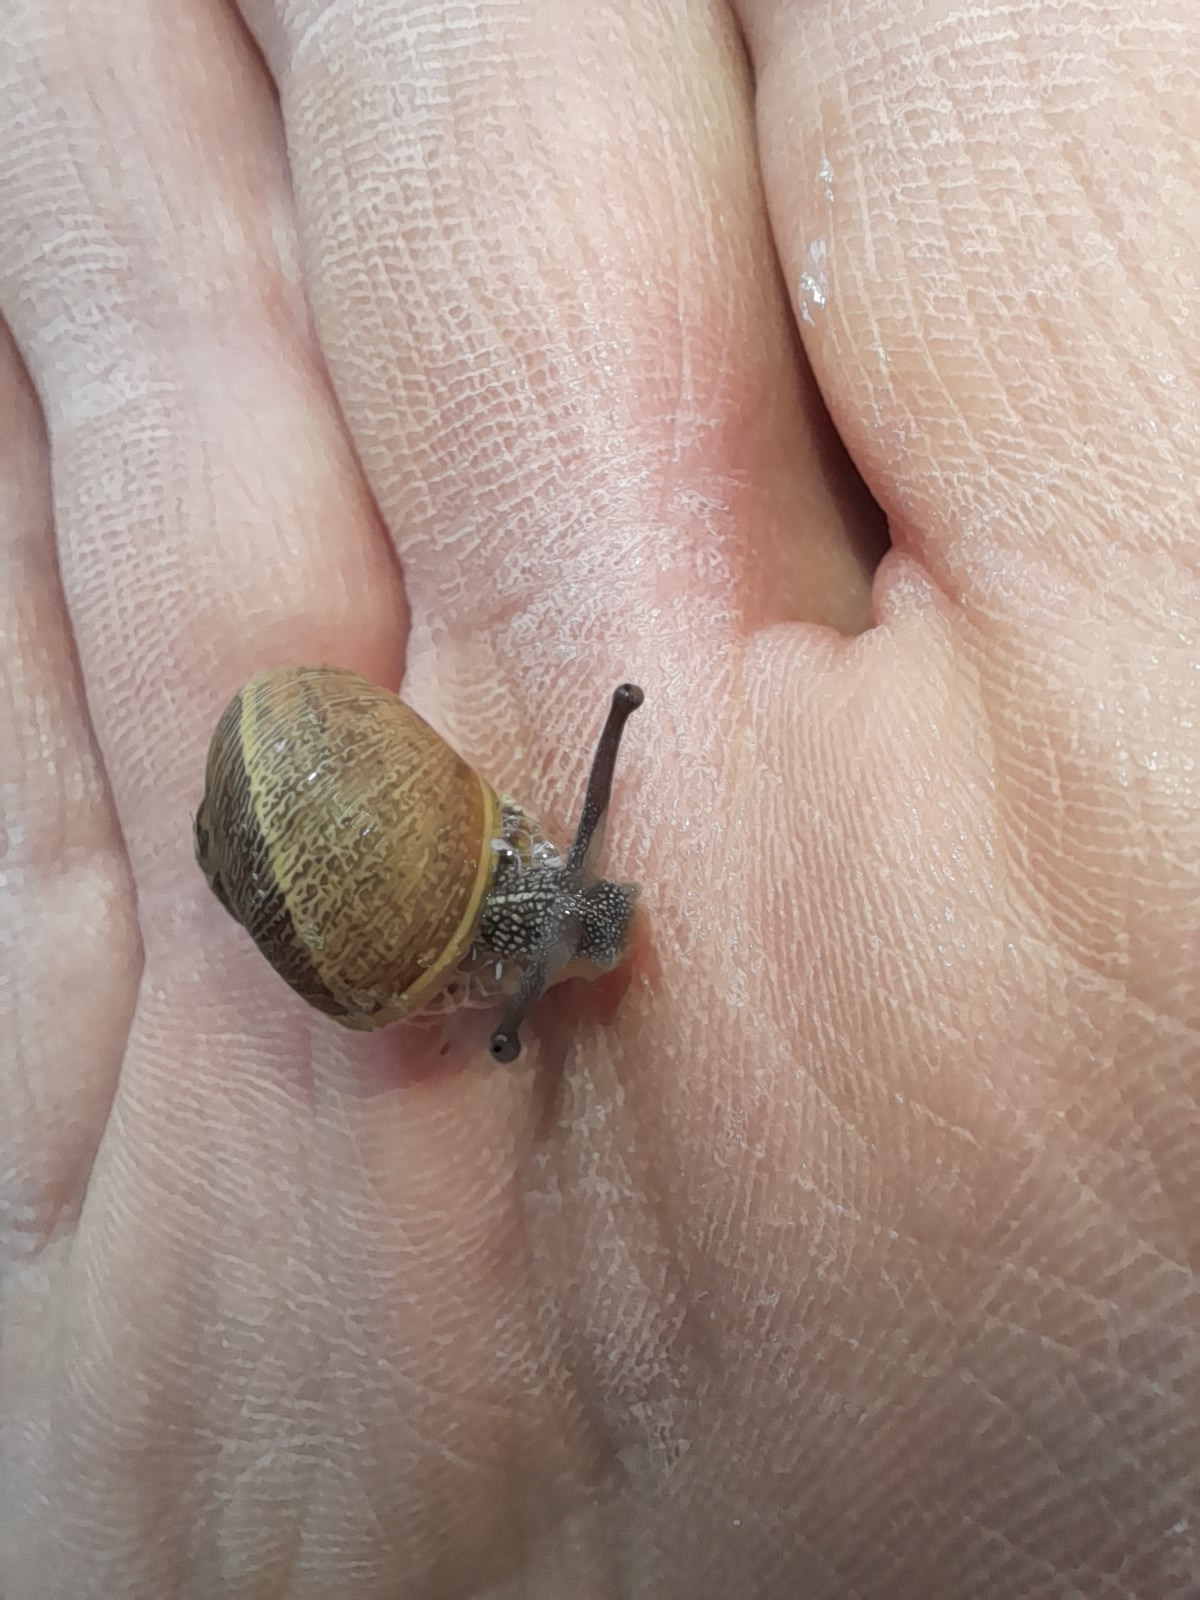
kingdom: Animalia
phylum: Mollusca
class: Gastropoda
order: Stylommatophora
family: Helicidae
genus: Cornu
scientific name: Cornu aspersum
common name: Brown garden snail
